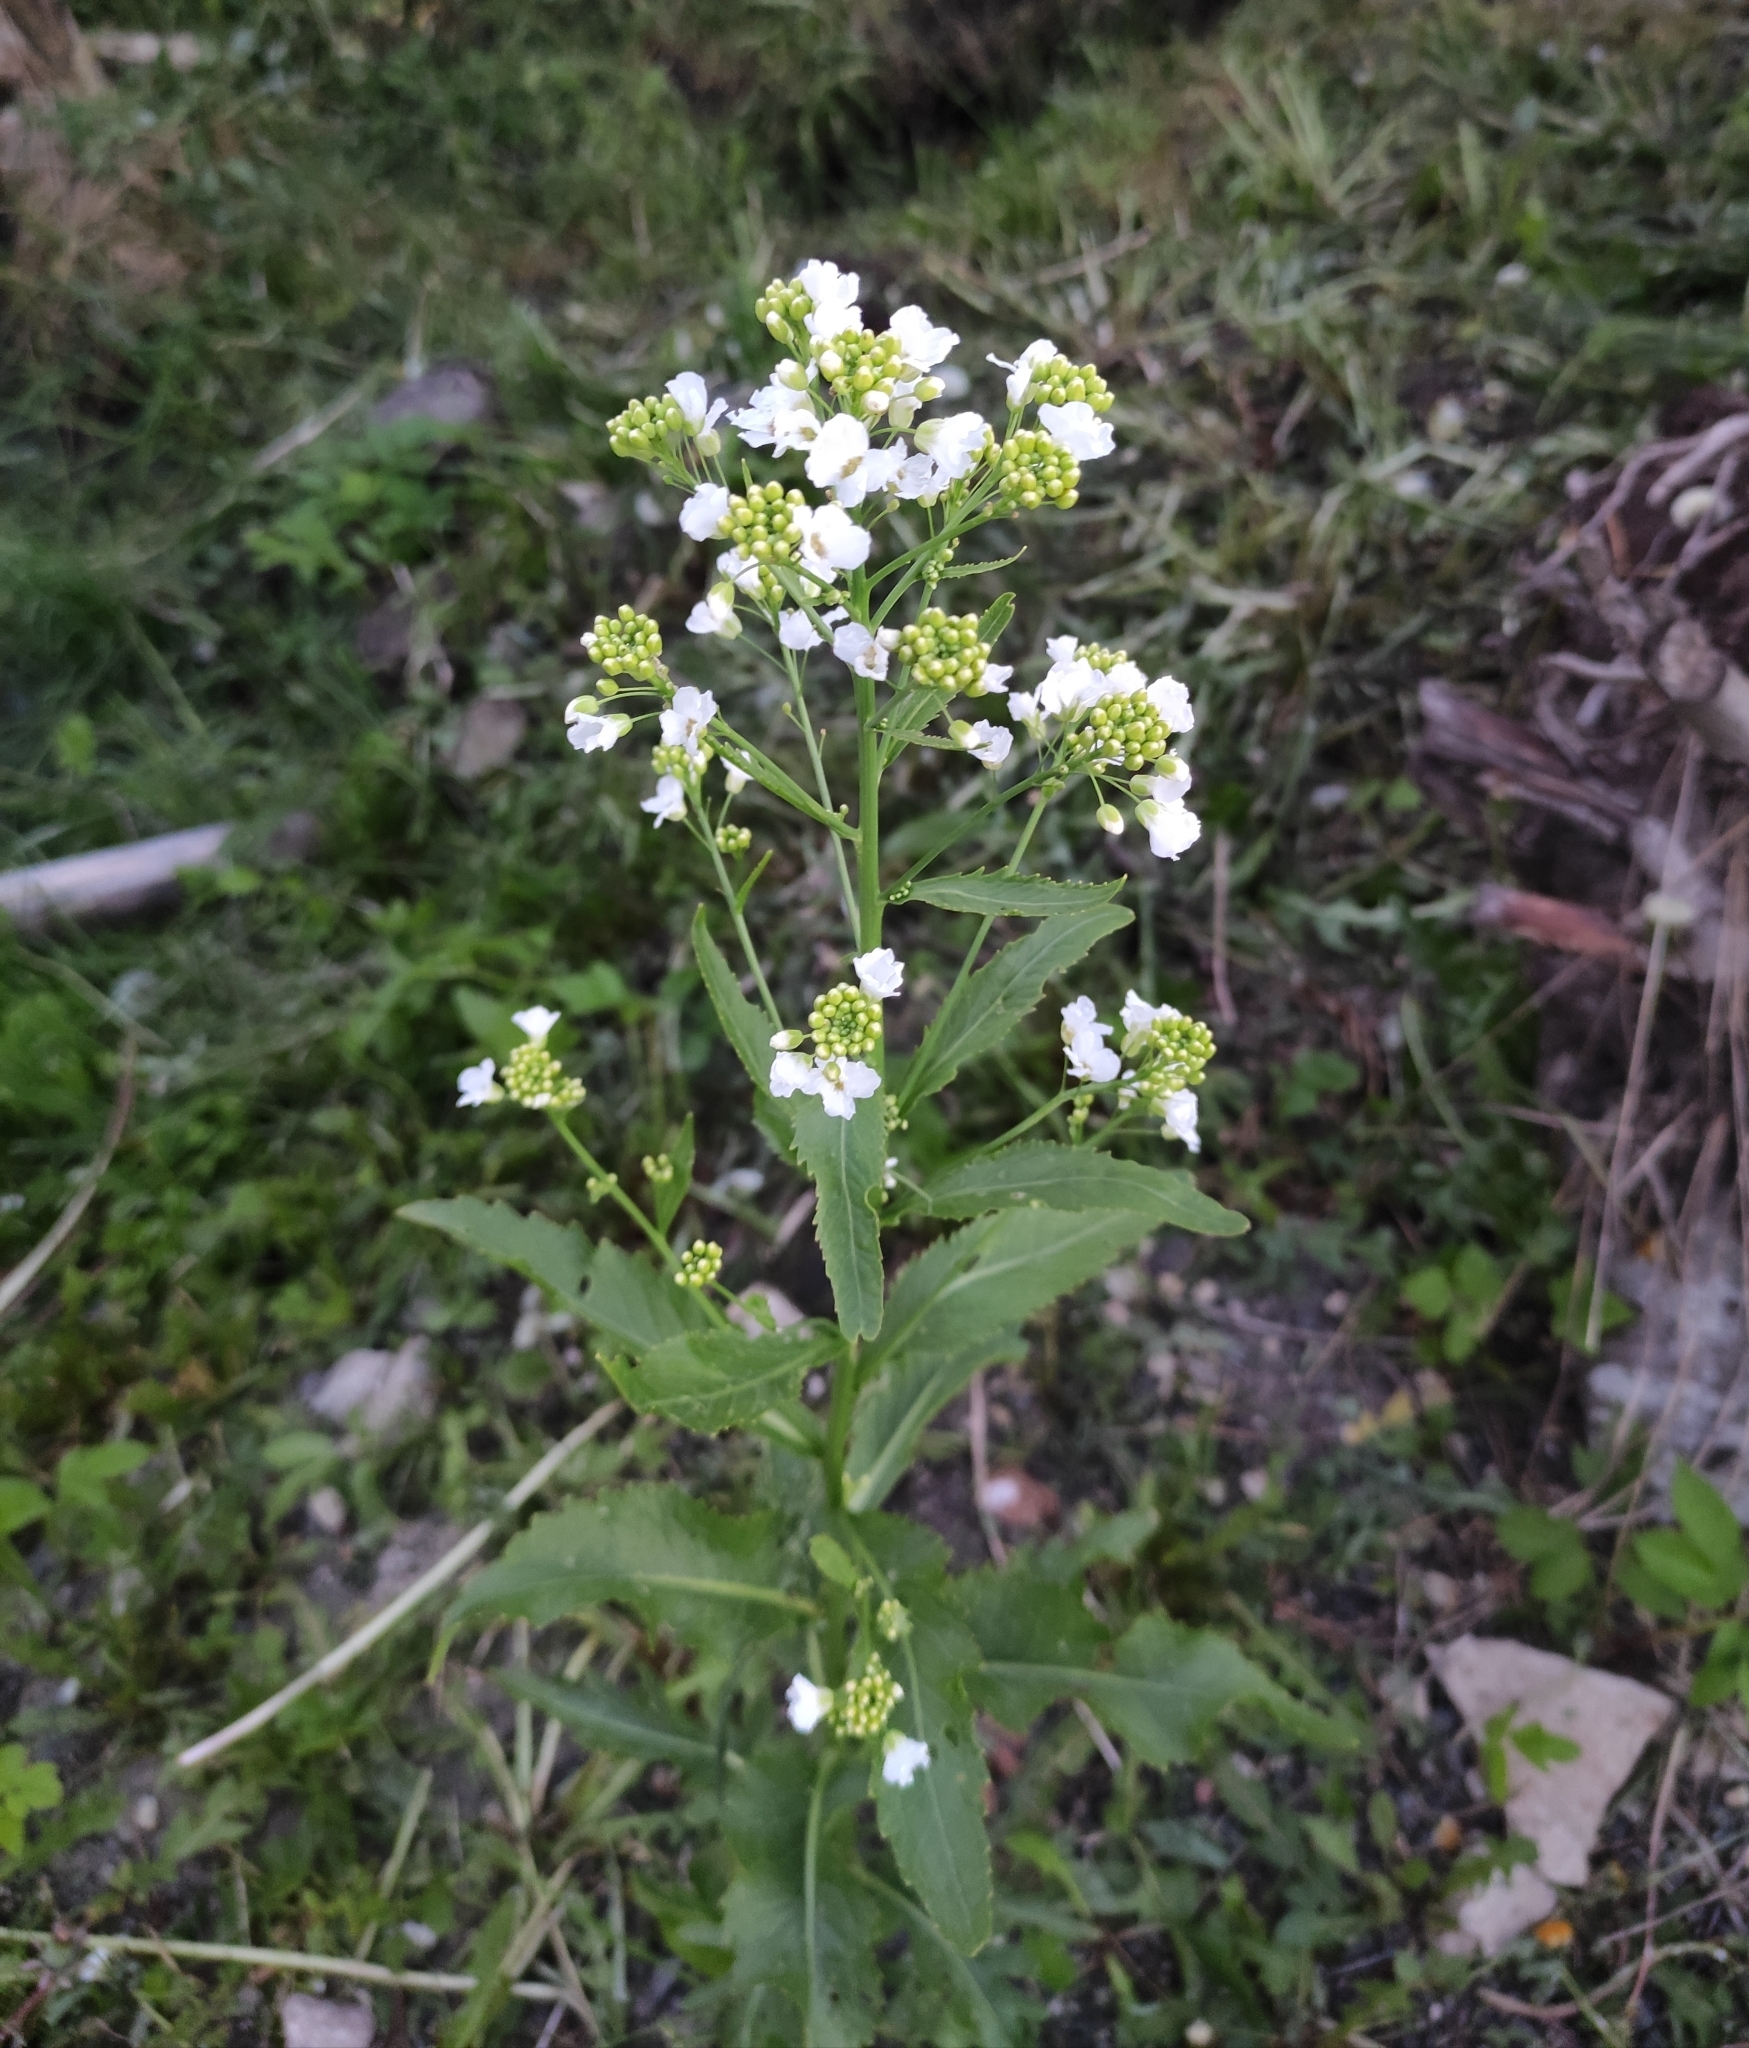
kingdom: Plantae
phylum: Tracheophyta
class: Magnoliopsida
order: Brassicales
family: Brassicaceae
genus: Armoracia
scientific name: Armoracia rusticana
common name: Horseradish
